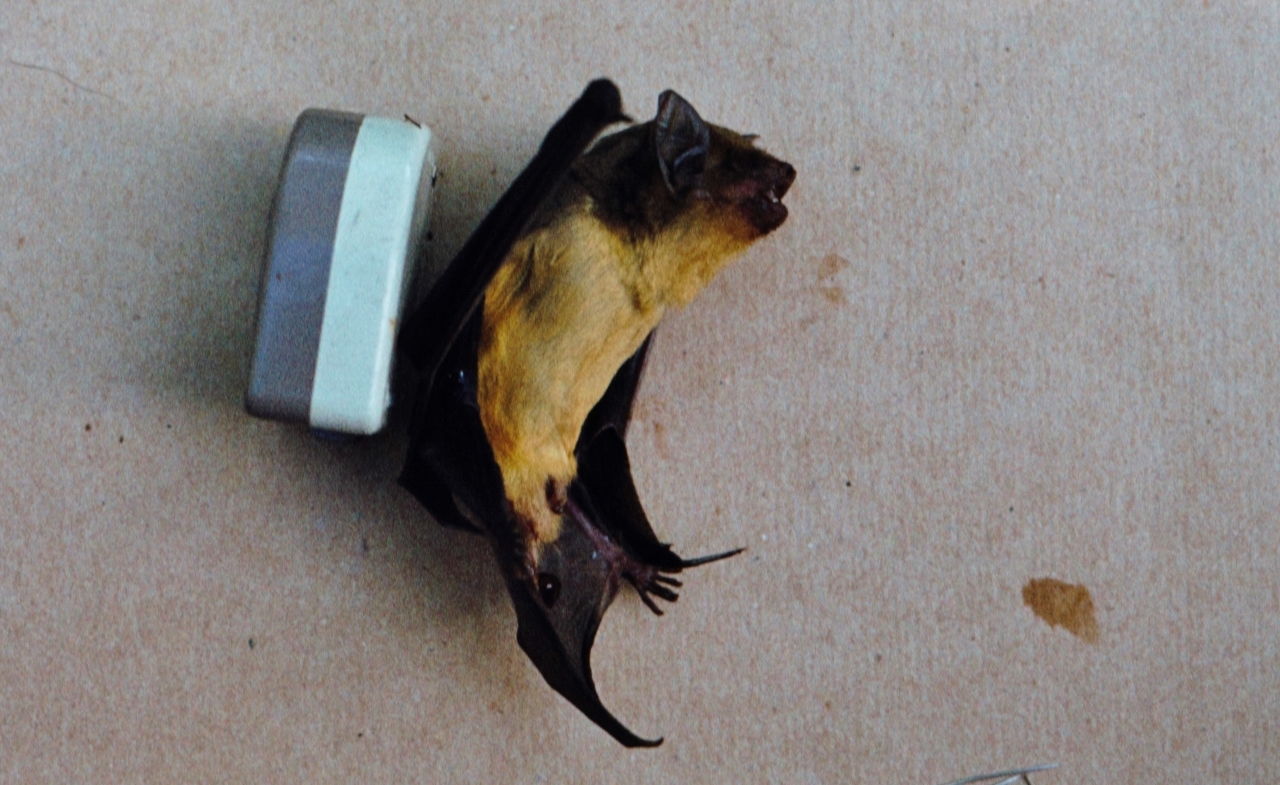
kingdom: Animalia
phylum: Chordata
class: Mammalia
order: Chiroptera
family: Vespertilionidae
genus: Scotophilus
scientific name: Scotophilus dinganii
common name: Yellow-bellied house bat
